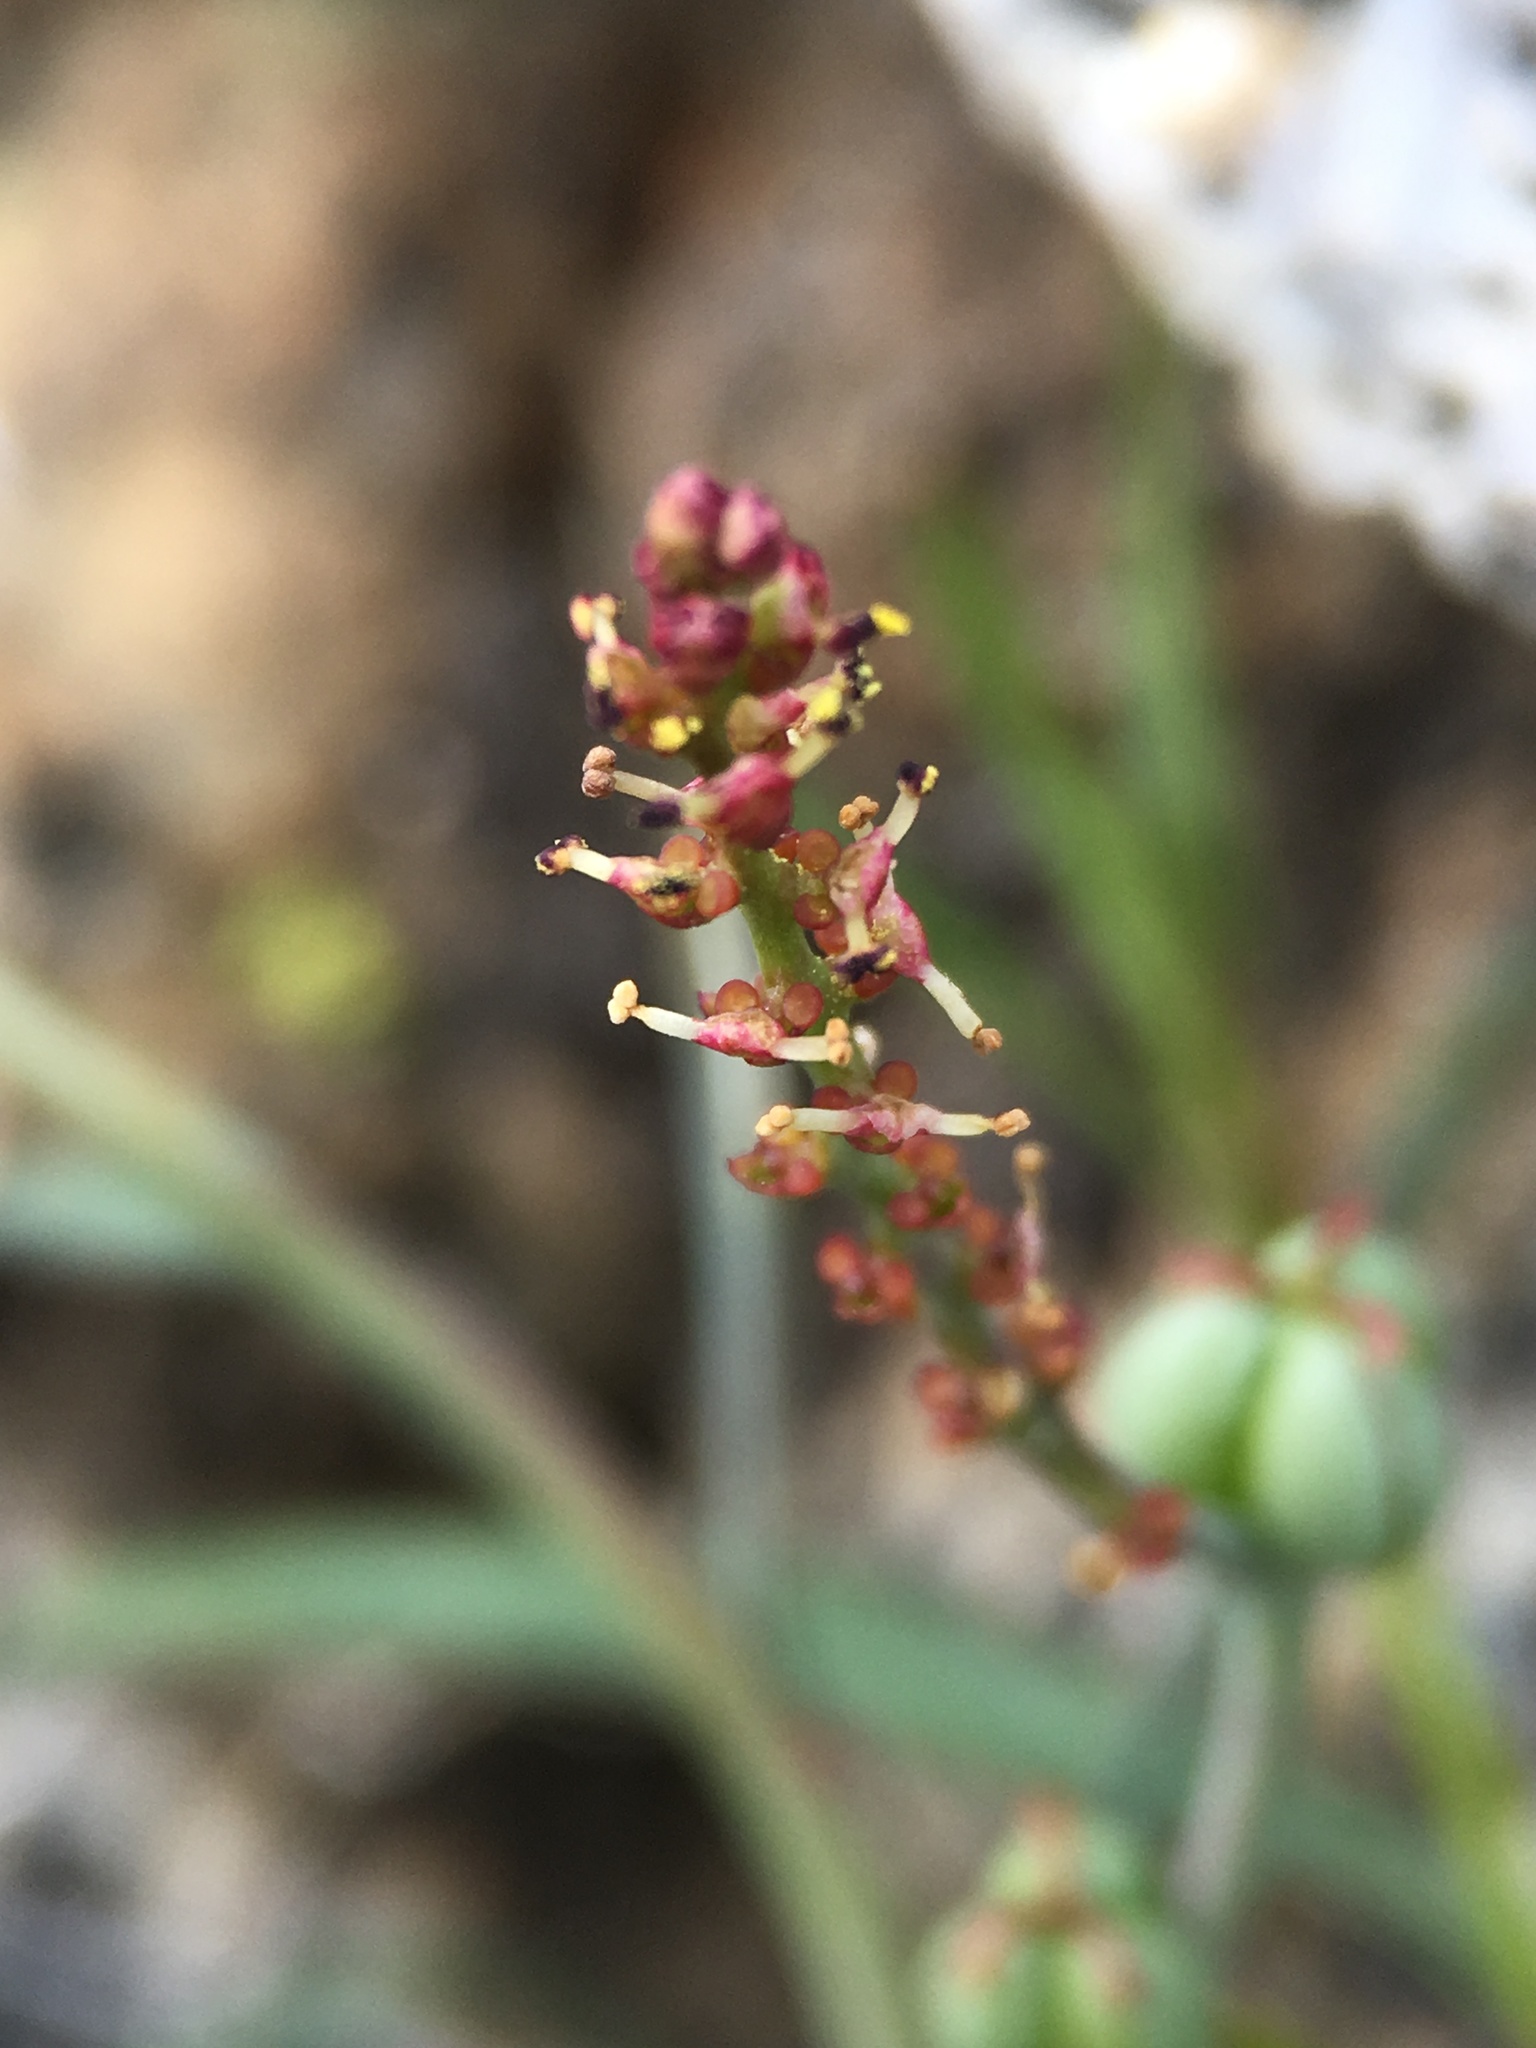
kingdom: Plantae
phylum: Tracheophyta
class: Magnoliopsida
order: Malpighiales
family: Euphorbiaceae
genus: Stillingia
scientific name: Stillingia linearifolia
